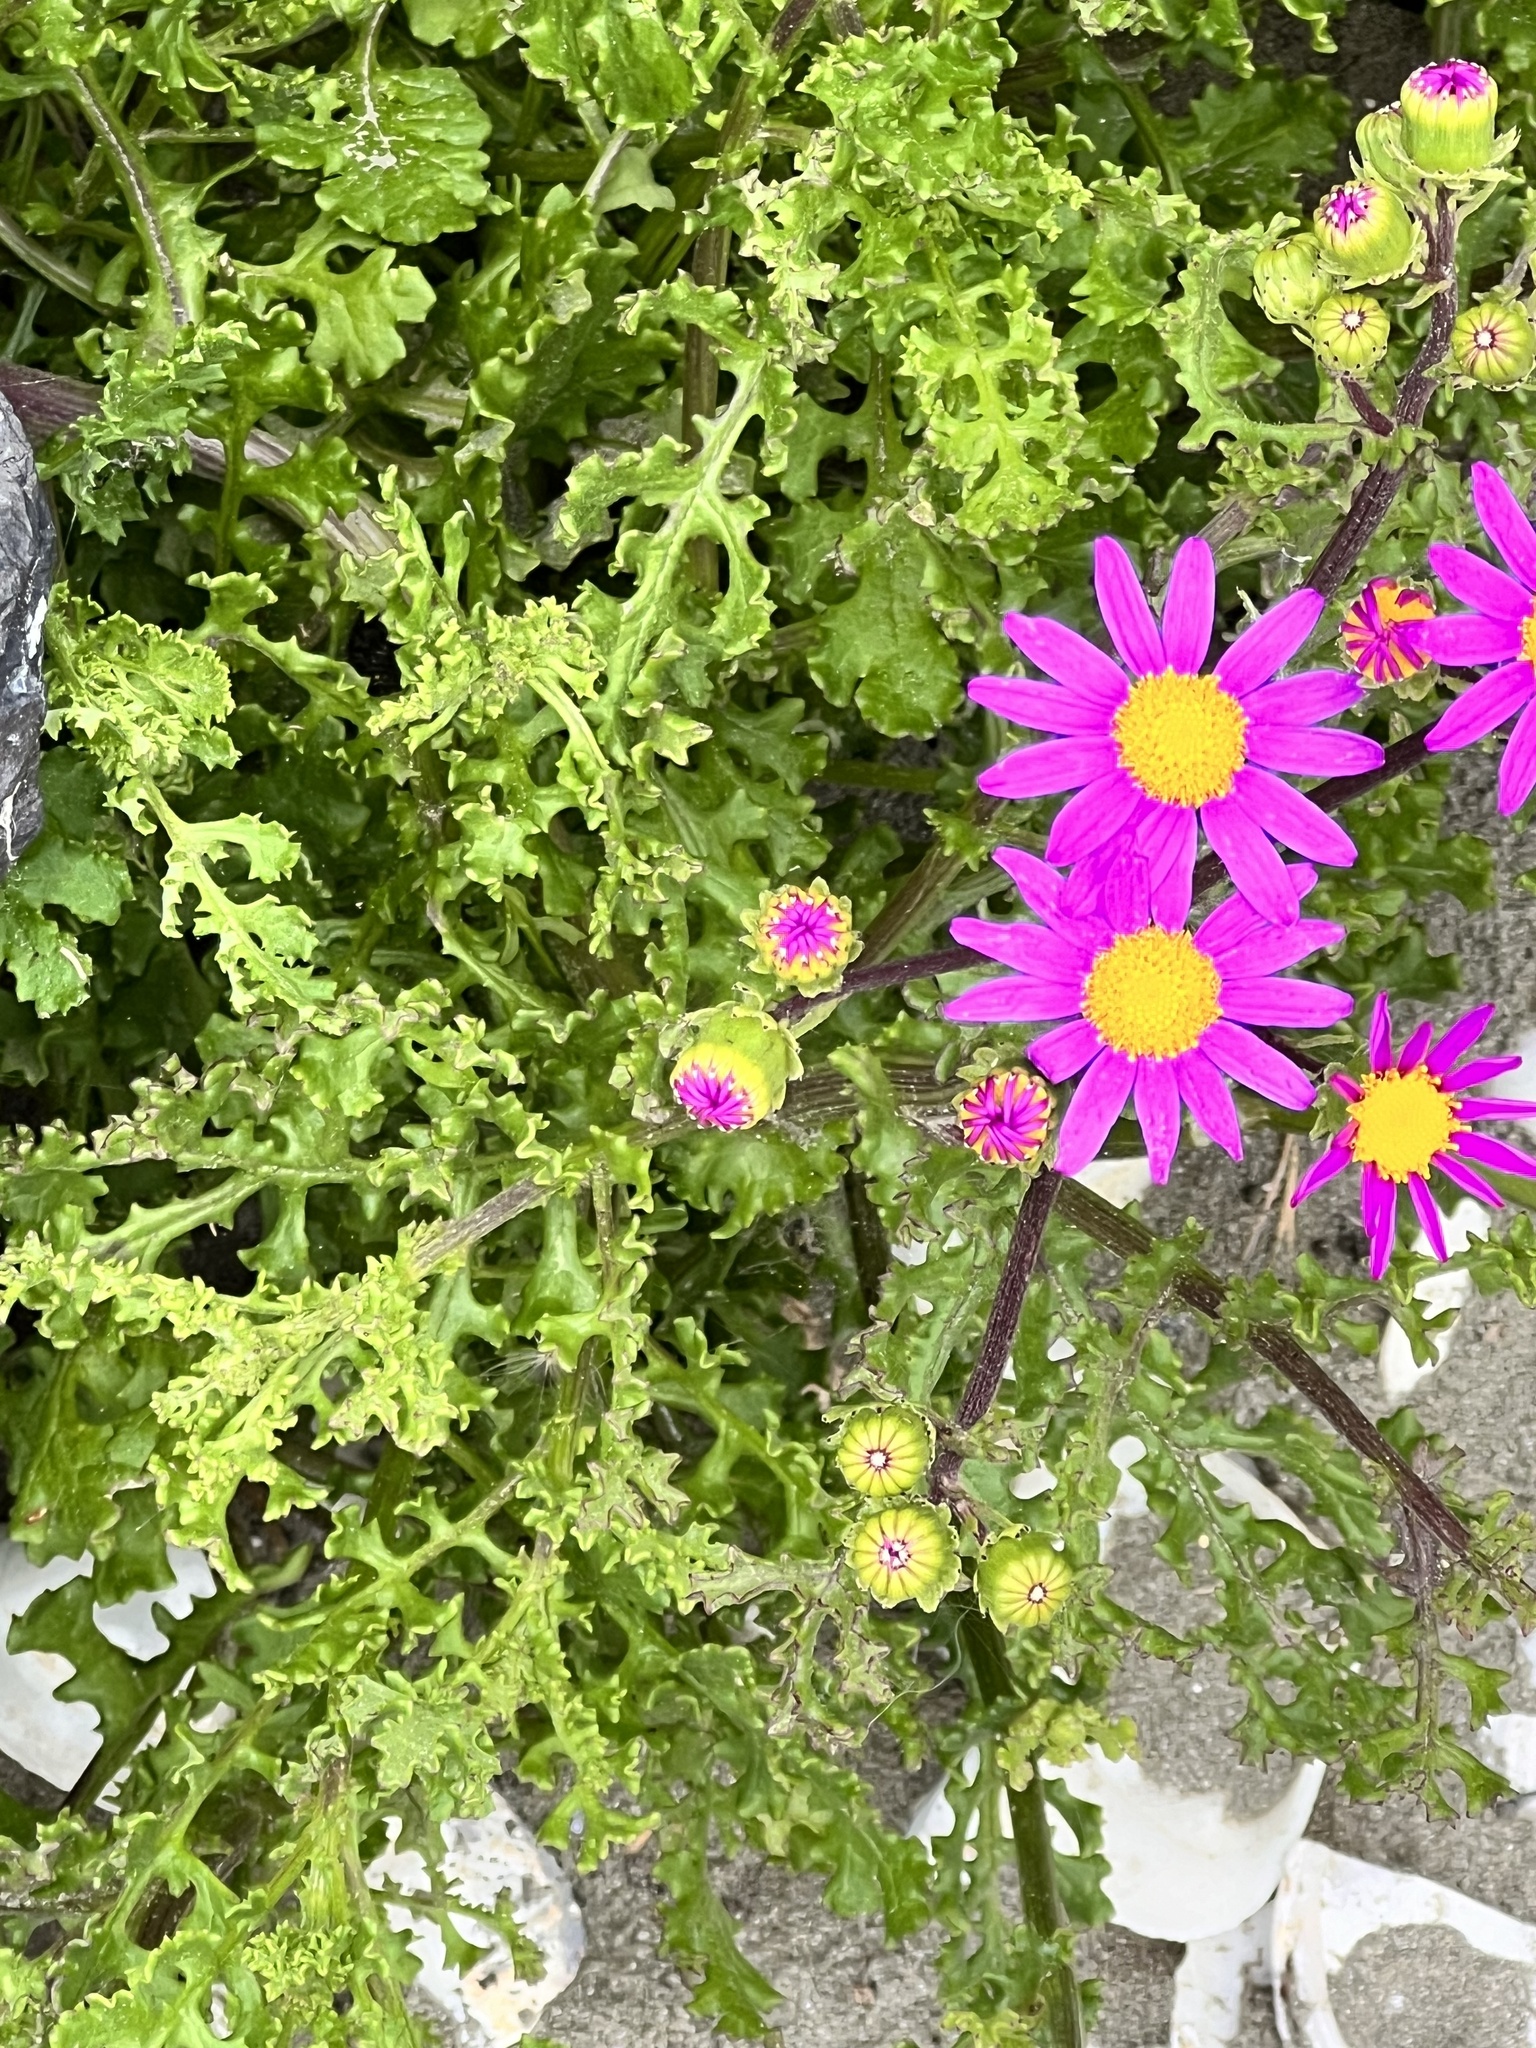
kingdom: Plantae
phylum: Tracheophyta
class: Magnoliopsida
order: Asterales
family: Asteraceae
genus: Senecio
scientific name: Senecio elegans
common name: Purple groundsel
